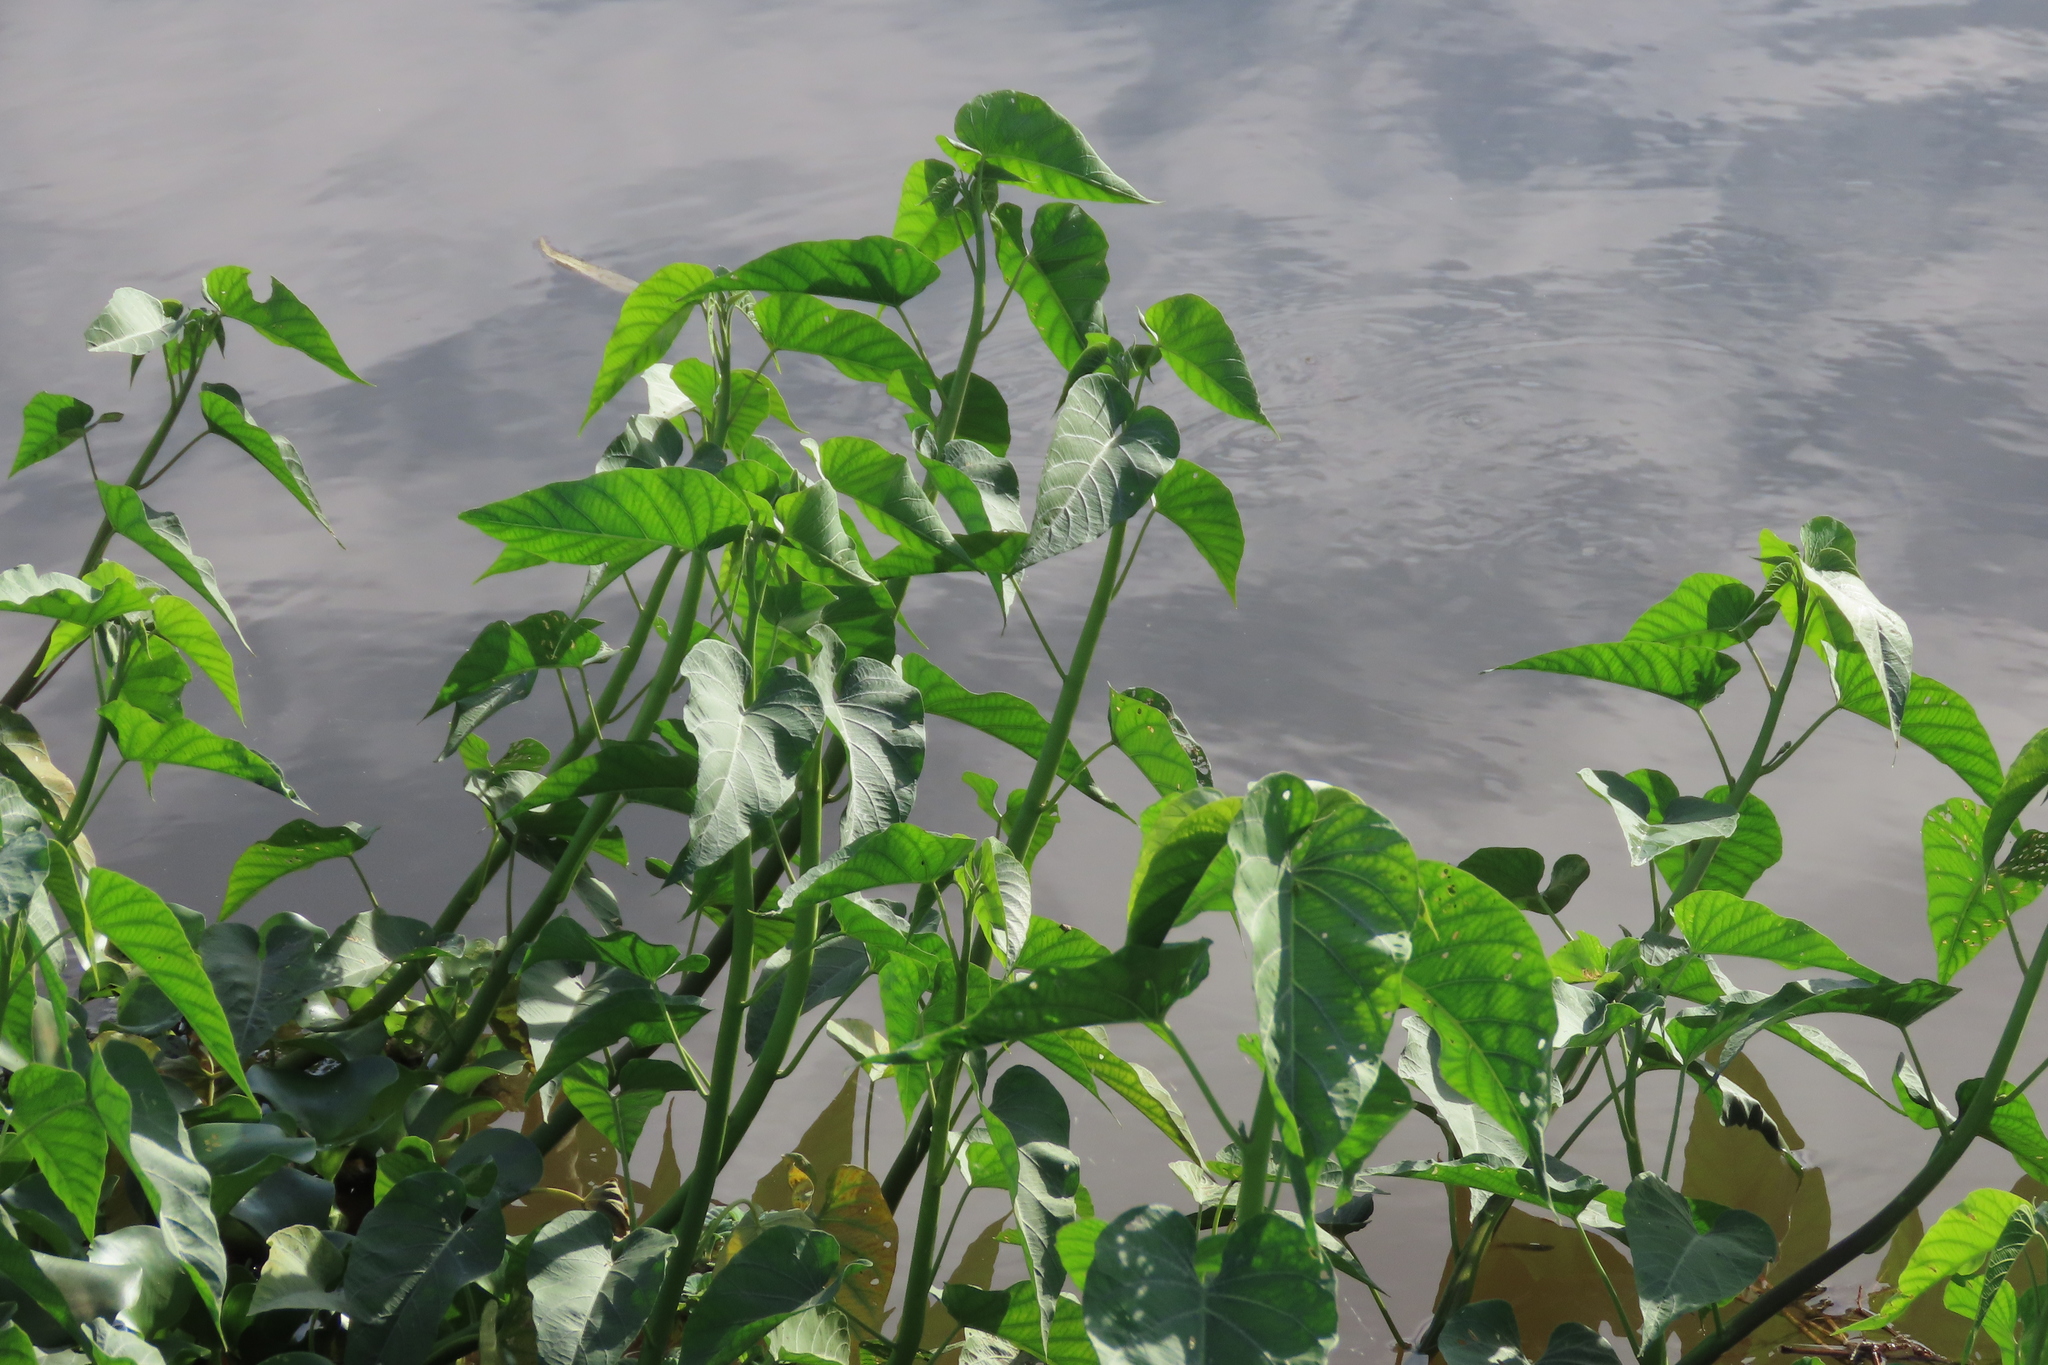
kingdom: Plantae
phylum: Tracheophyta
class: Magnoliopsida
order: Solanales
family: Convolvulaceae
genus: Ipomoea
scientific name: Ipomoea carnea
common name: Morning-glory
